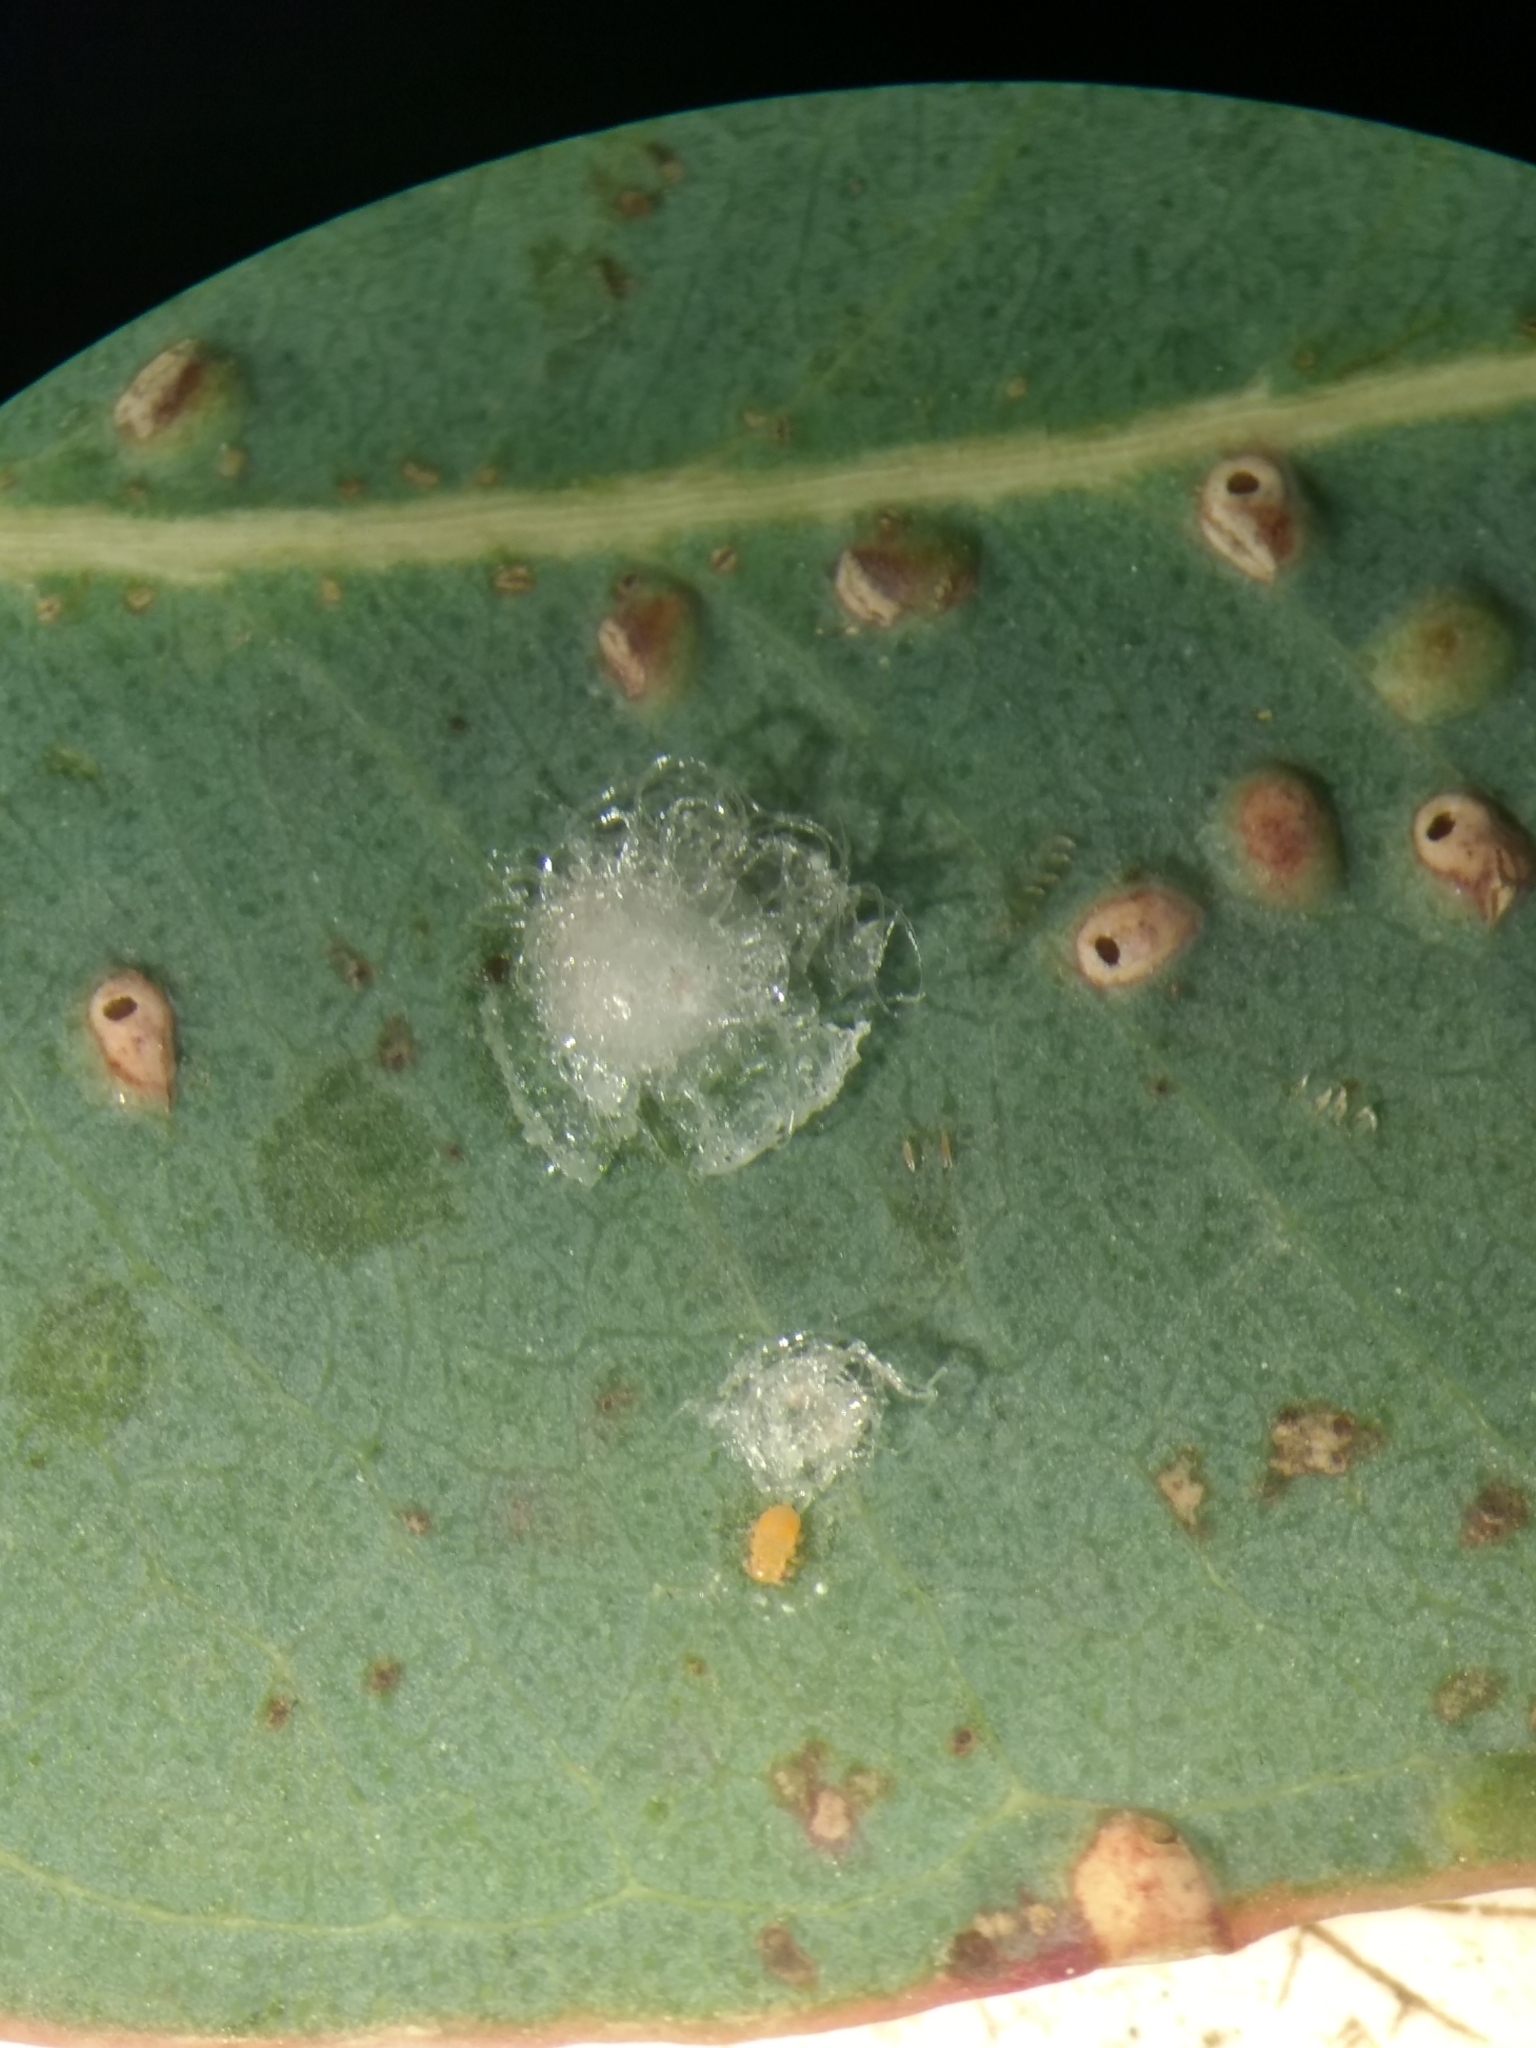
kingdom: Animalia
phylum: Arthropoda
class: Insecta
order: Hemiptera
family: Aphalaridae
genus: Glycaspis
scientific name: Glycaspis brimblecombei
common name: Red gum lerp psyllid
